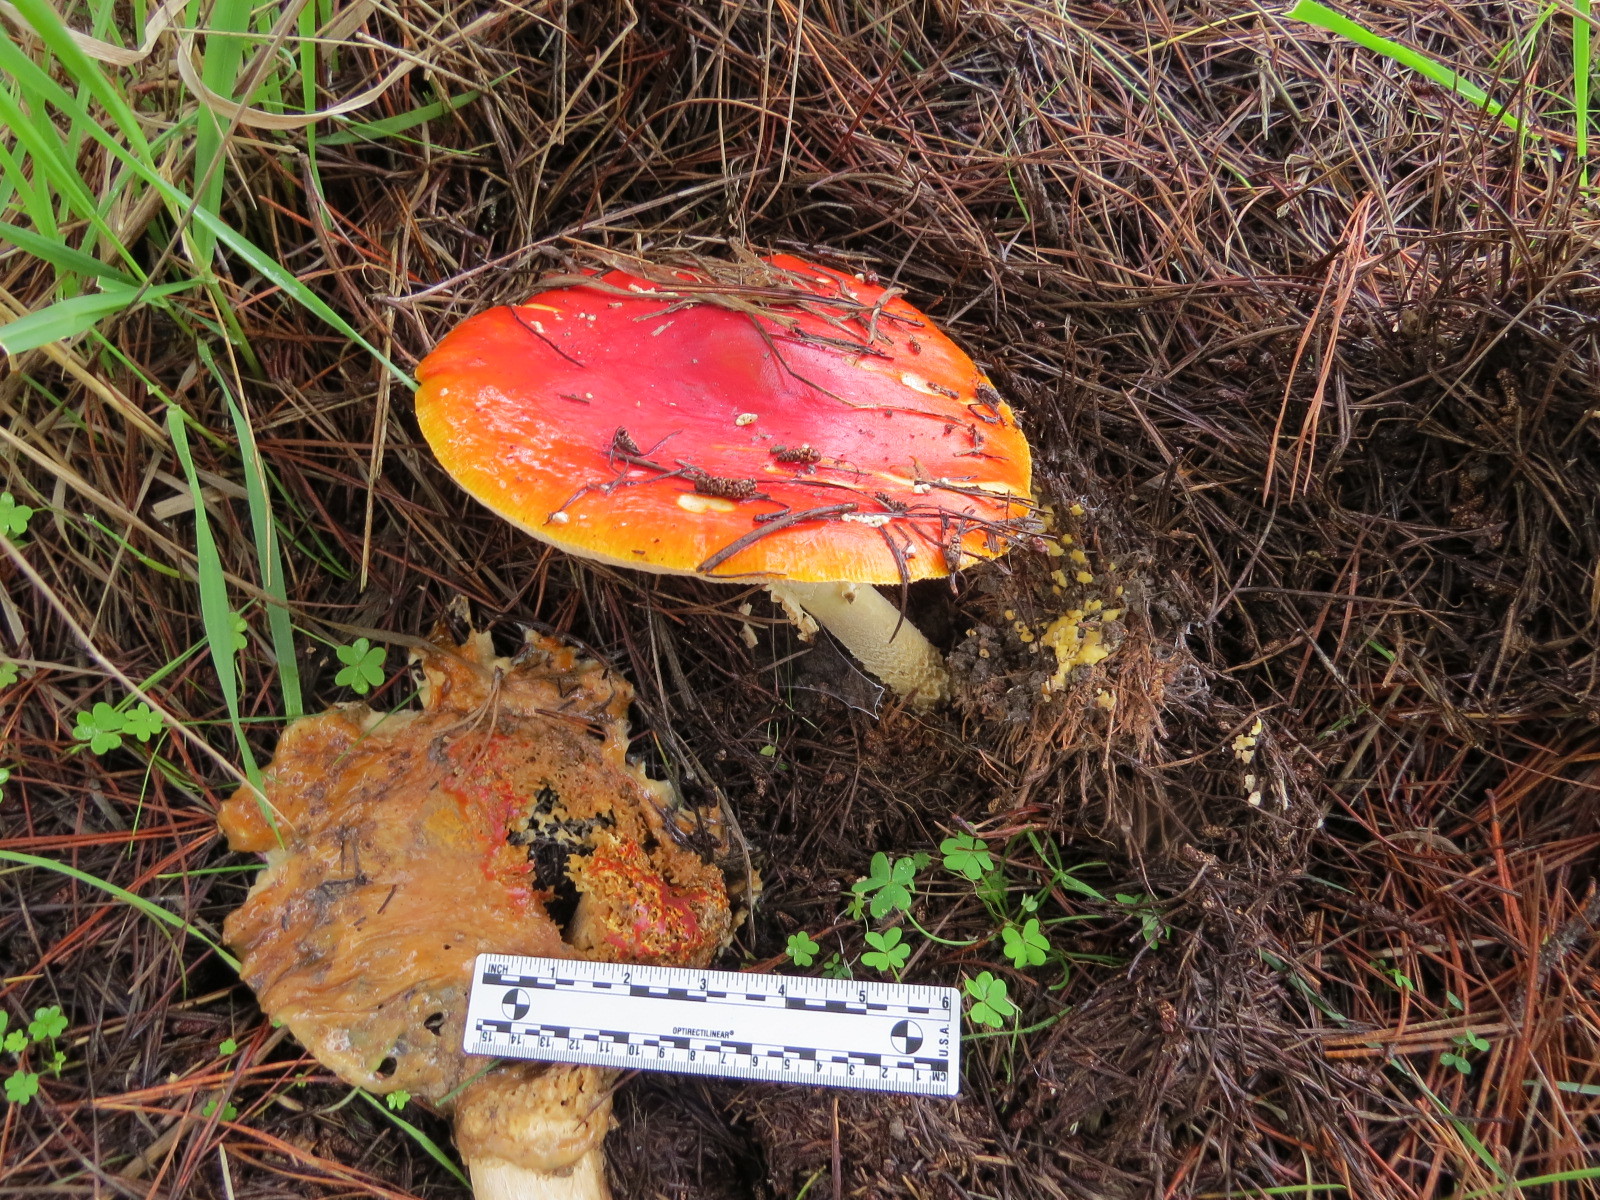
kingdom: Fungi
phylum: Basidiomycota
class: Agaricomycetes
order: Agaricales
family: Amanitaceae
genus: Amanita
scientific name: Amanita muscaria
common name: Fly agaric
